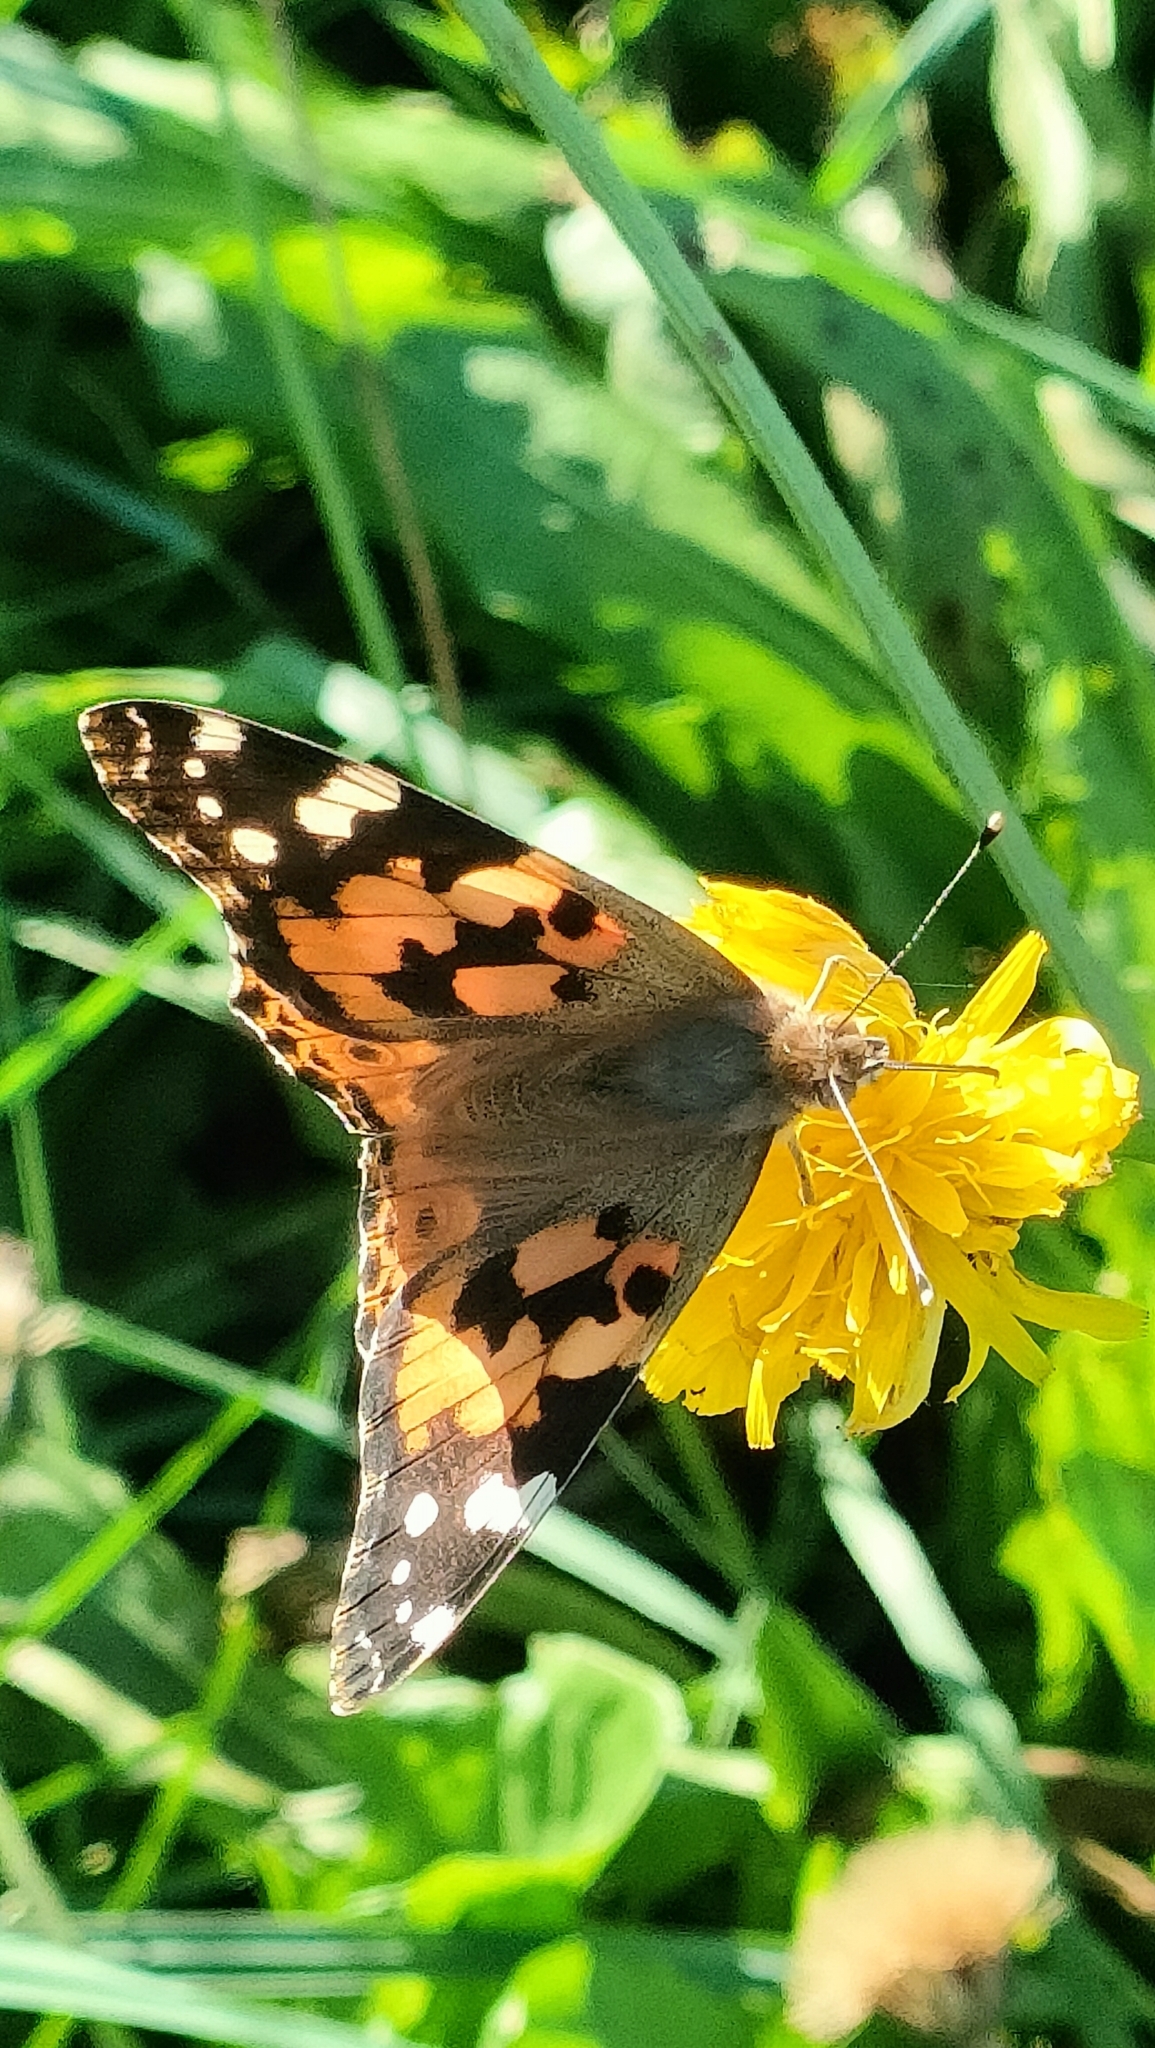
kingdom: Animalia
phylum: Arthropoda
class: Insecta
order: Lepidoptera
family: Nymphalidae
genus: Vanessa
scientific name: Vanessa cardui
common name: Painted lady
